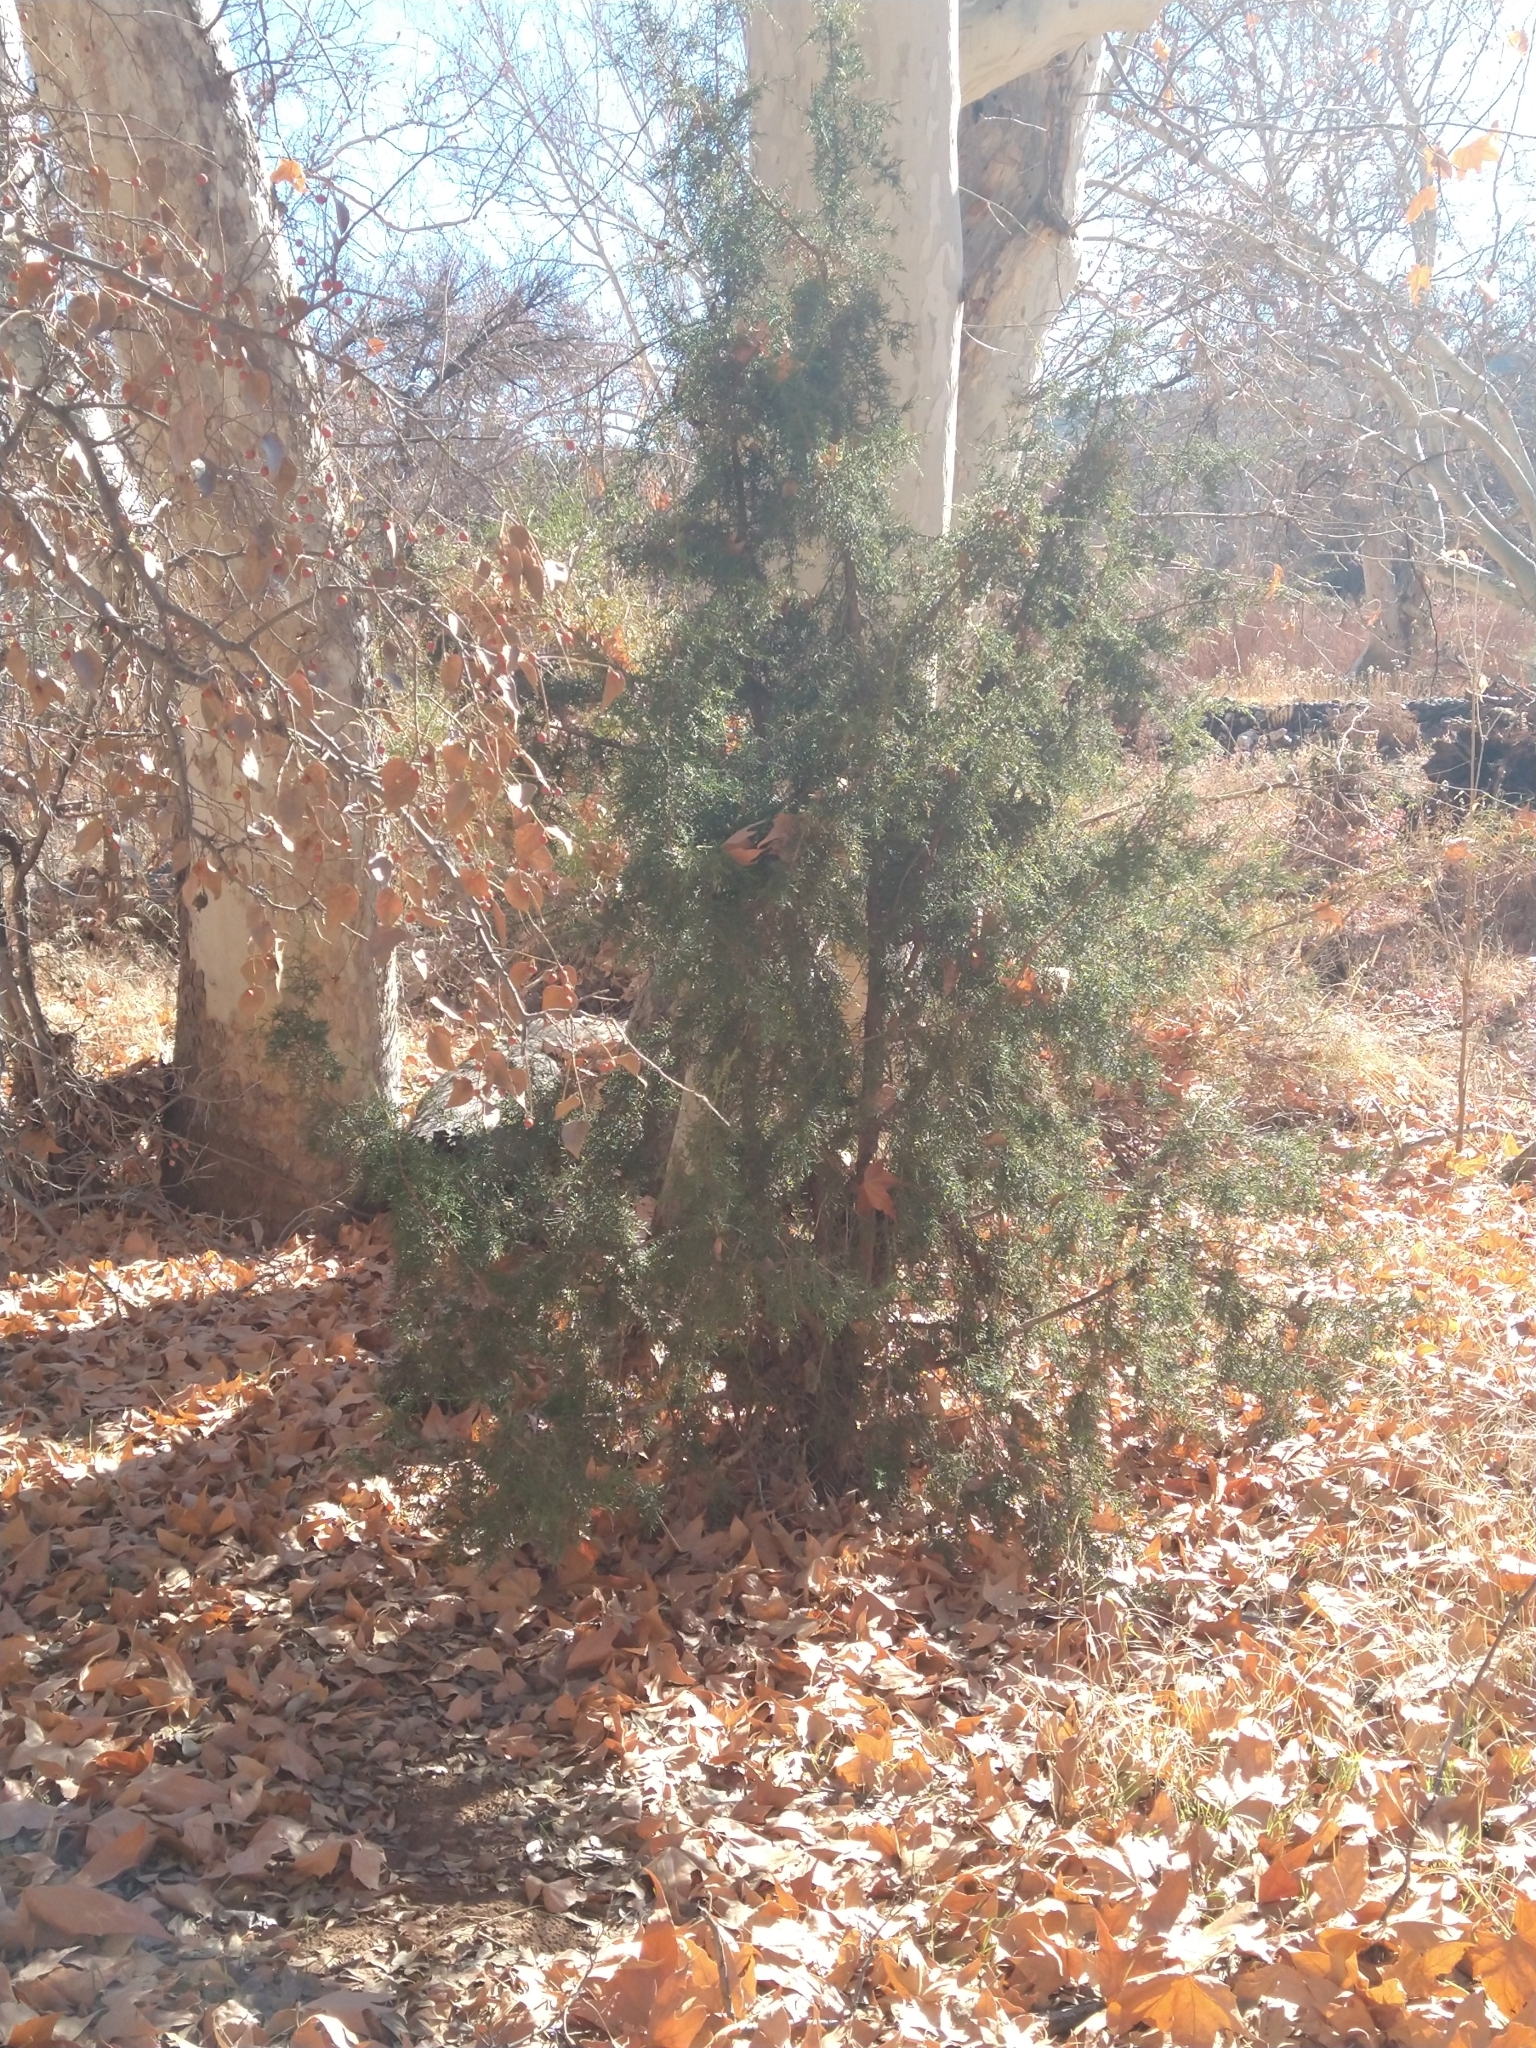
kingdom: Plantae
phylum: Tracheophyta
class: Pinopsida
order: Pinales
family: Cupressaceae
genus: Cupressus
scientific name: Cupressus arizonica
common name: Arizona cypress
